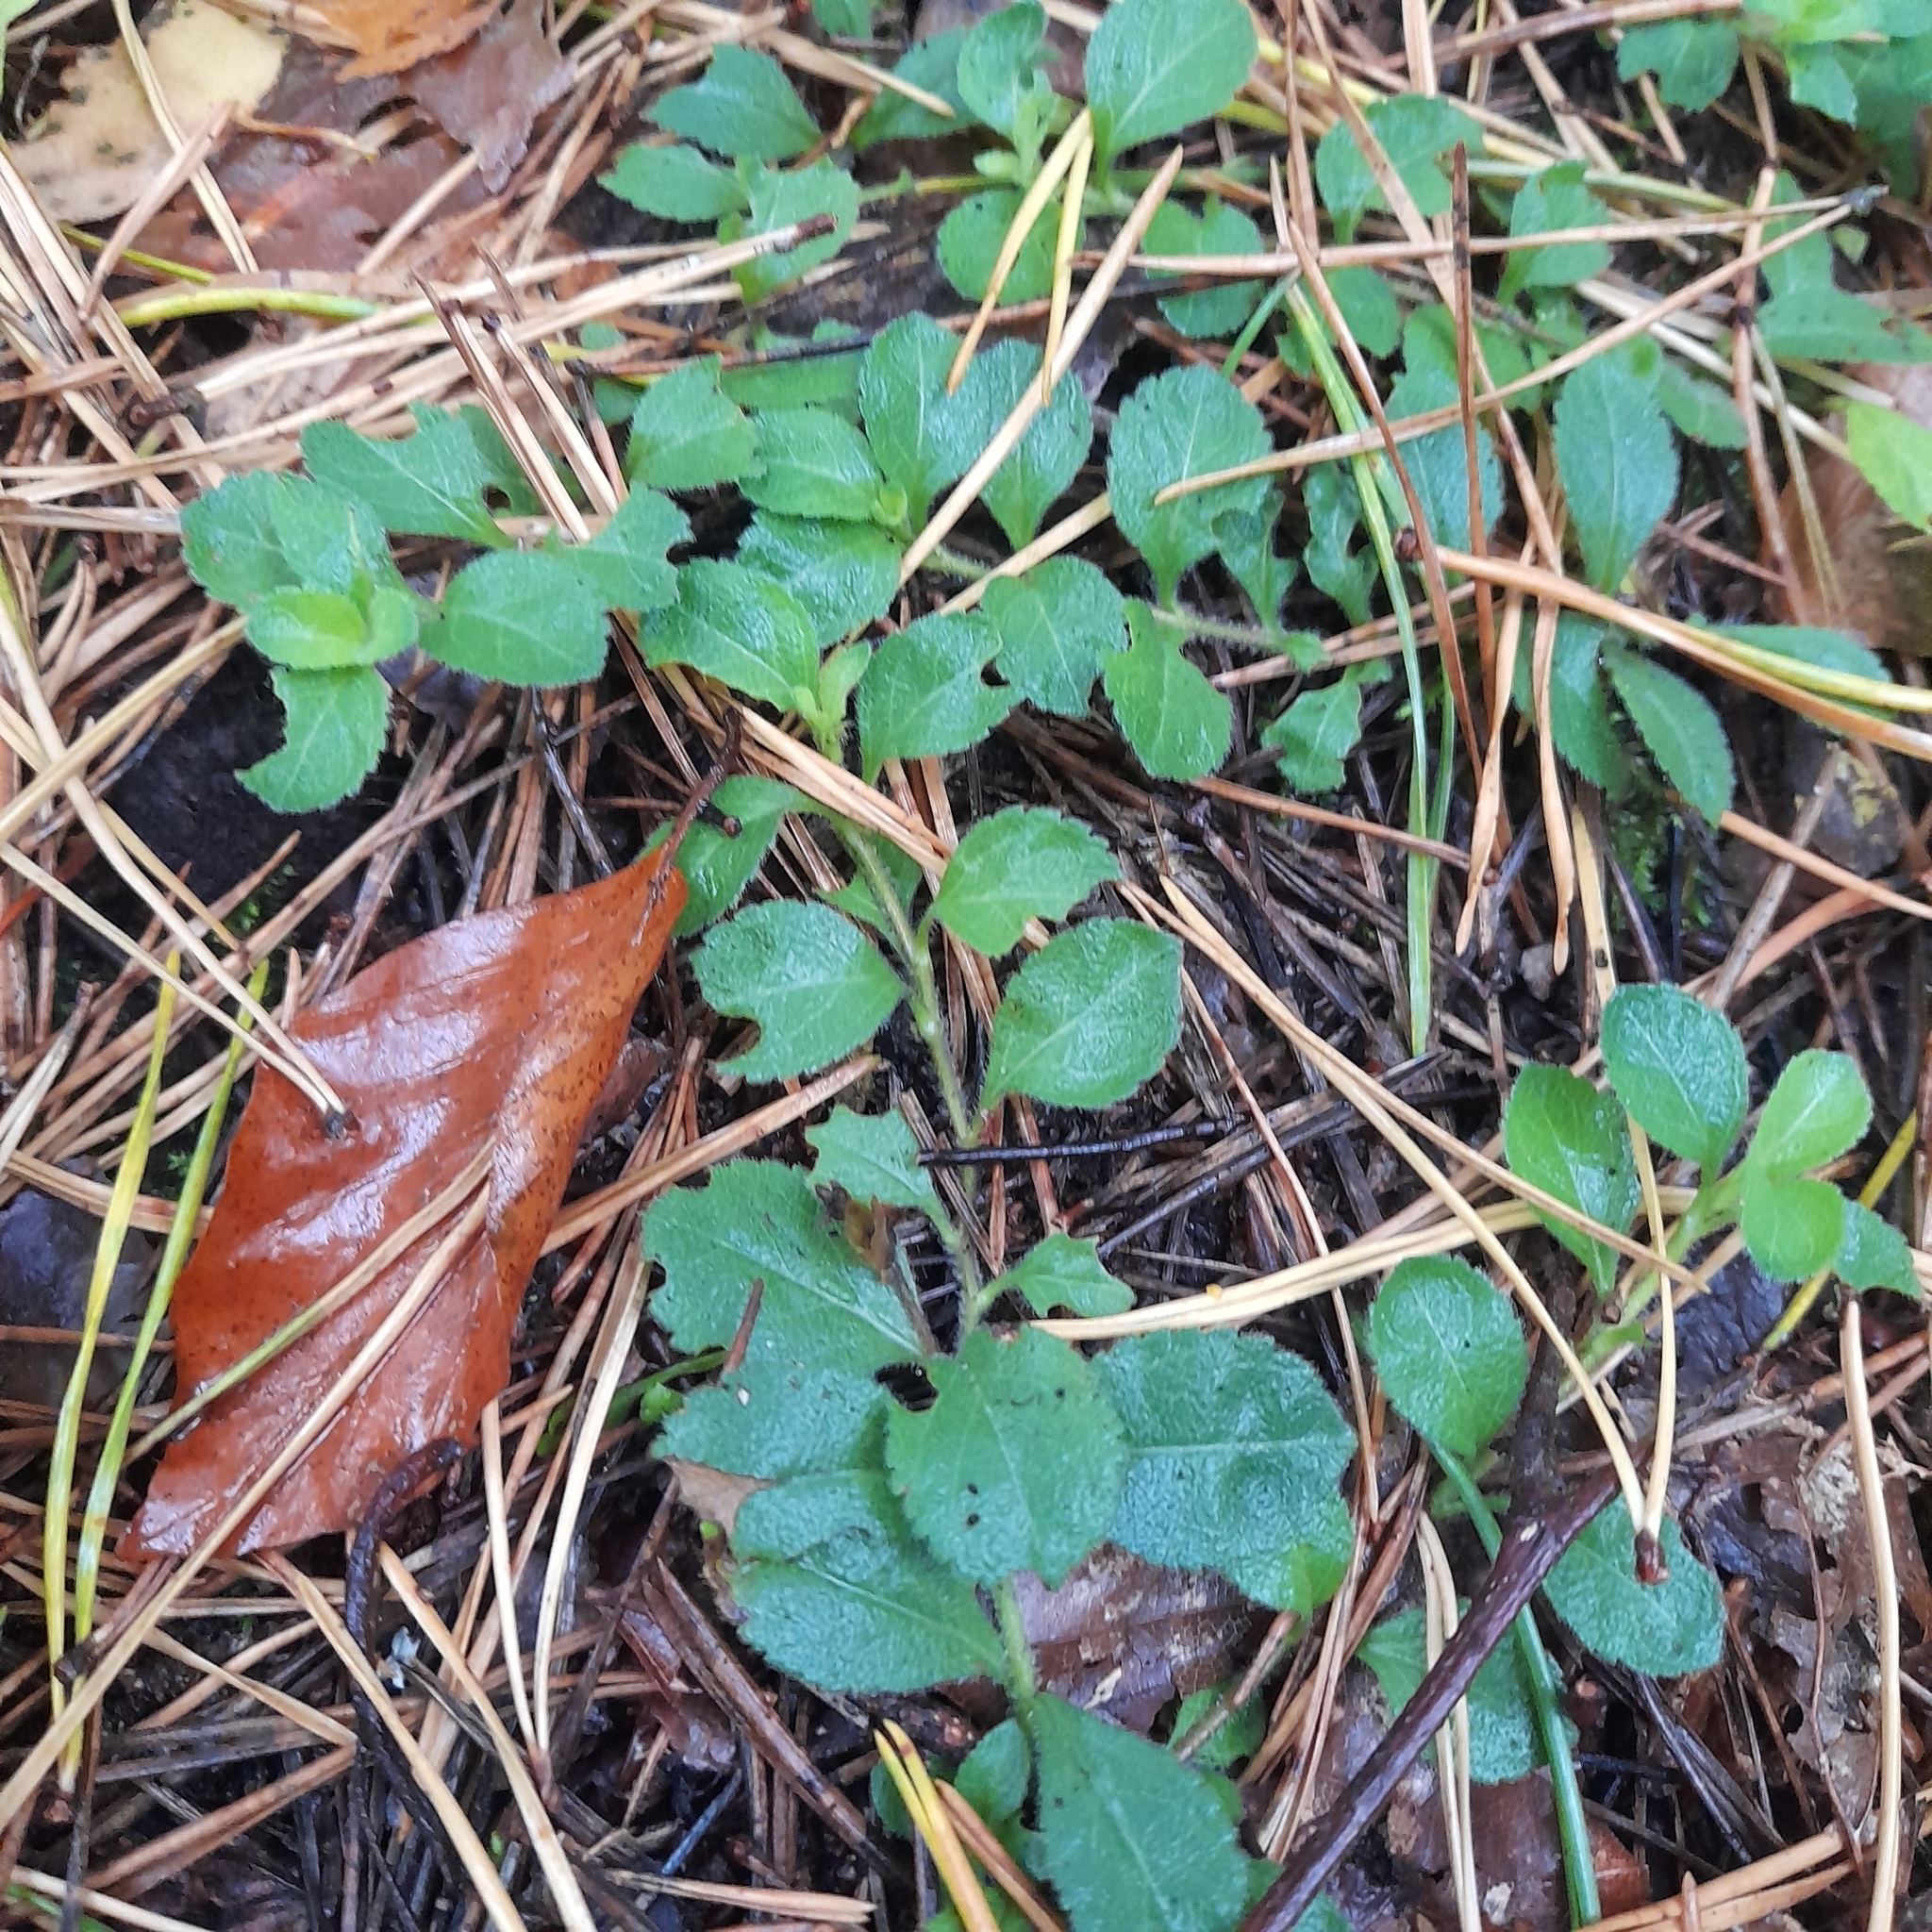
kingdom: Plantae
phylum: Tracheophyta
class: Magnoliopsida
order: Lamiales
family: Plantaginaceae
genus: Veronica
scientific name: Veronica officinalis
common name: Common speedwell
